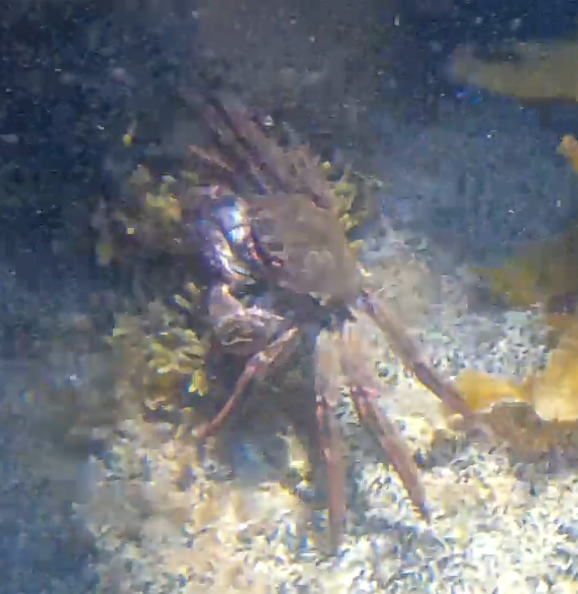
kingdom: Animalia
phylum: Arthropoda
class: Malacostraca
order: Decapoda
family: Plagusiidae
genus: Guinusia
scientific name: Guinusia chabrus
